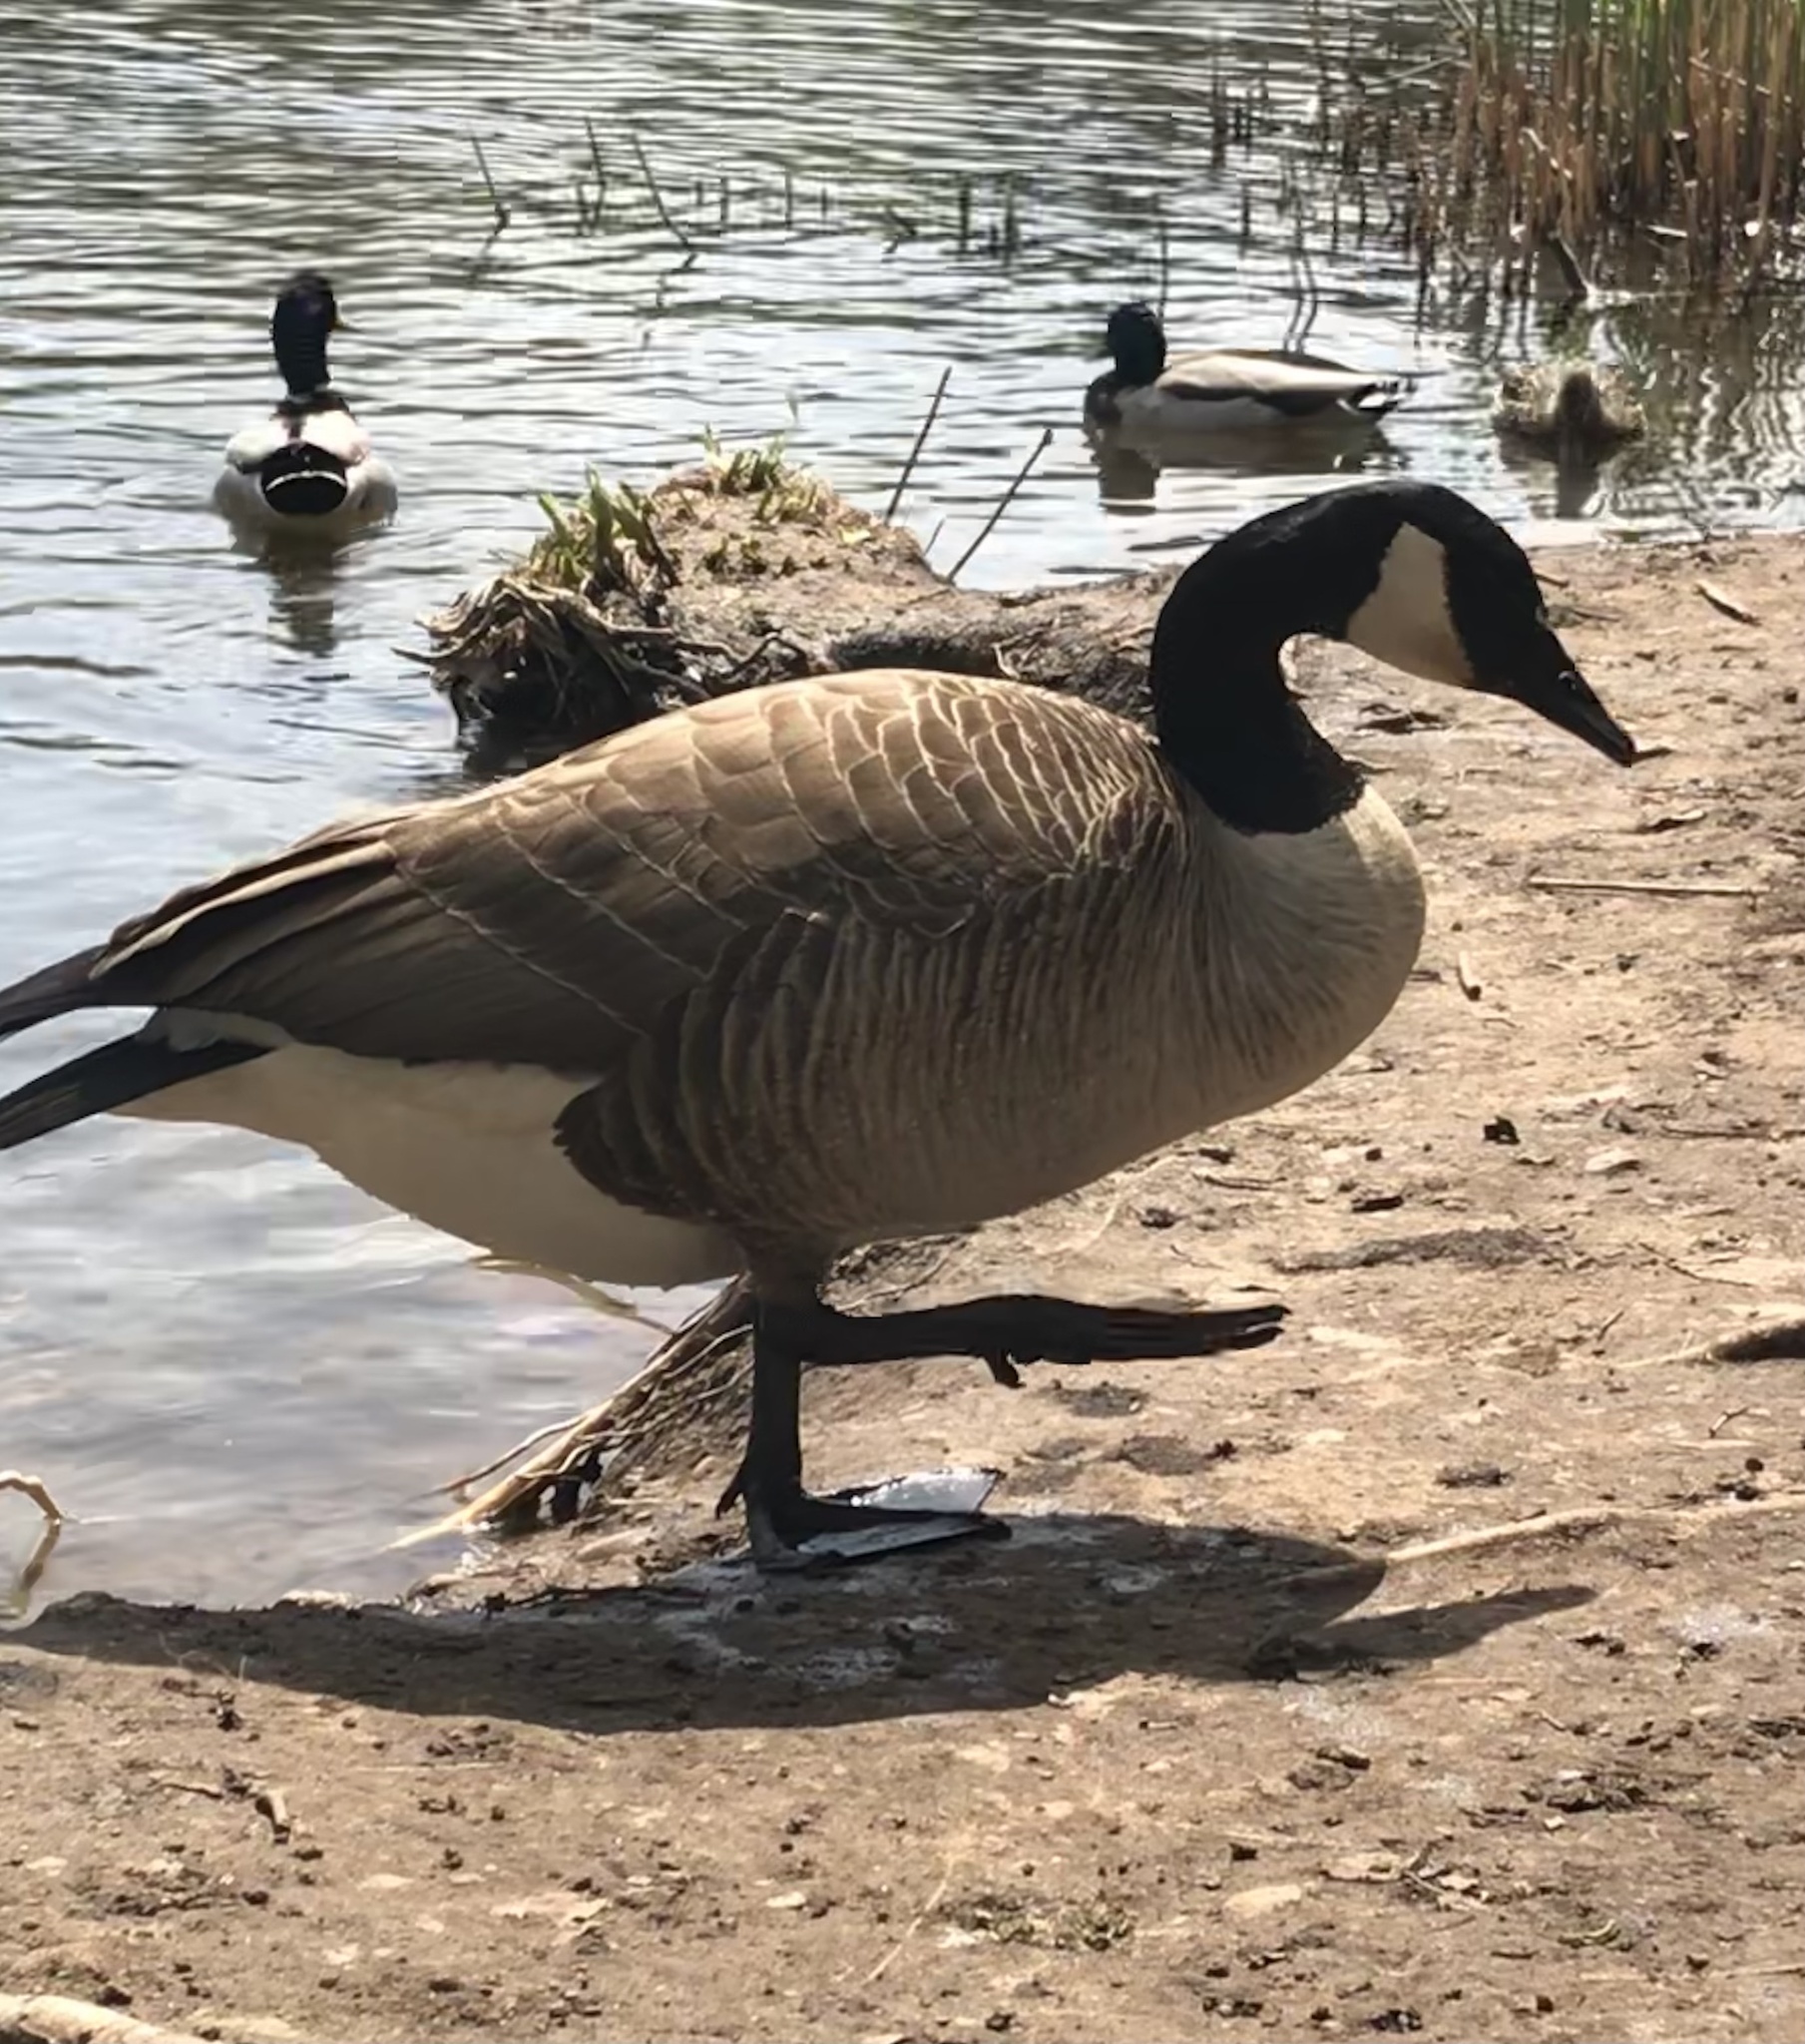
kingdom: Animalia
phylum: Chordata
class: Aves
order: Anseriformes
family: Anatidae
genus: Branta
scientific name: Branta canadensis
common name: Canada goose
